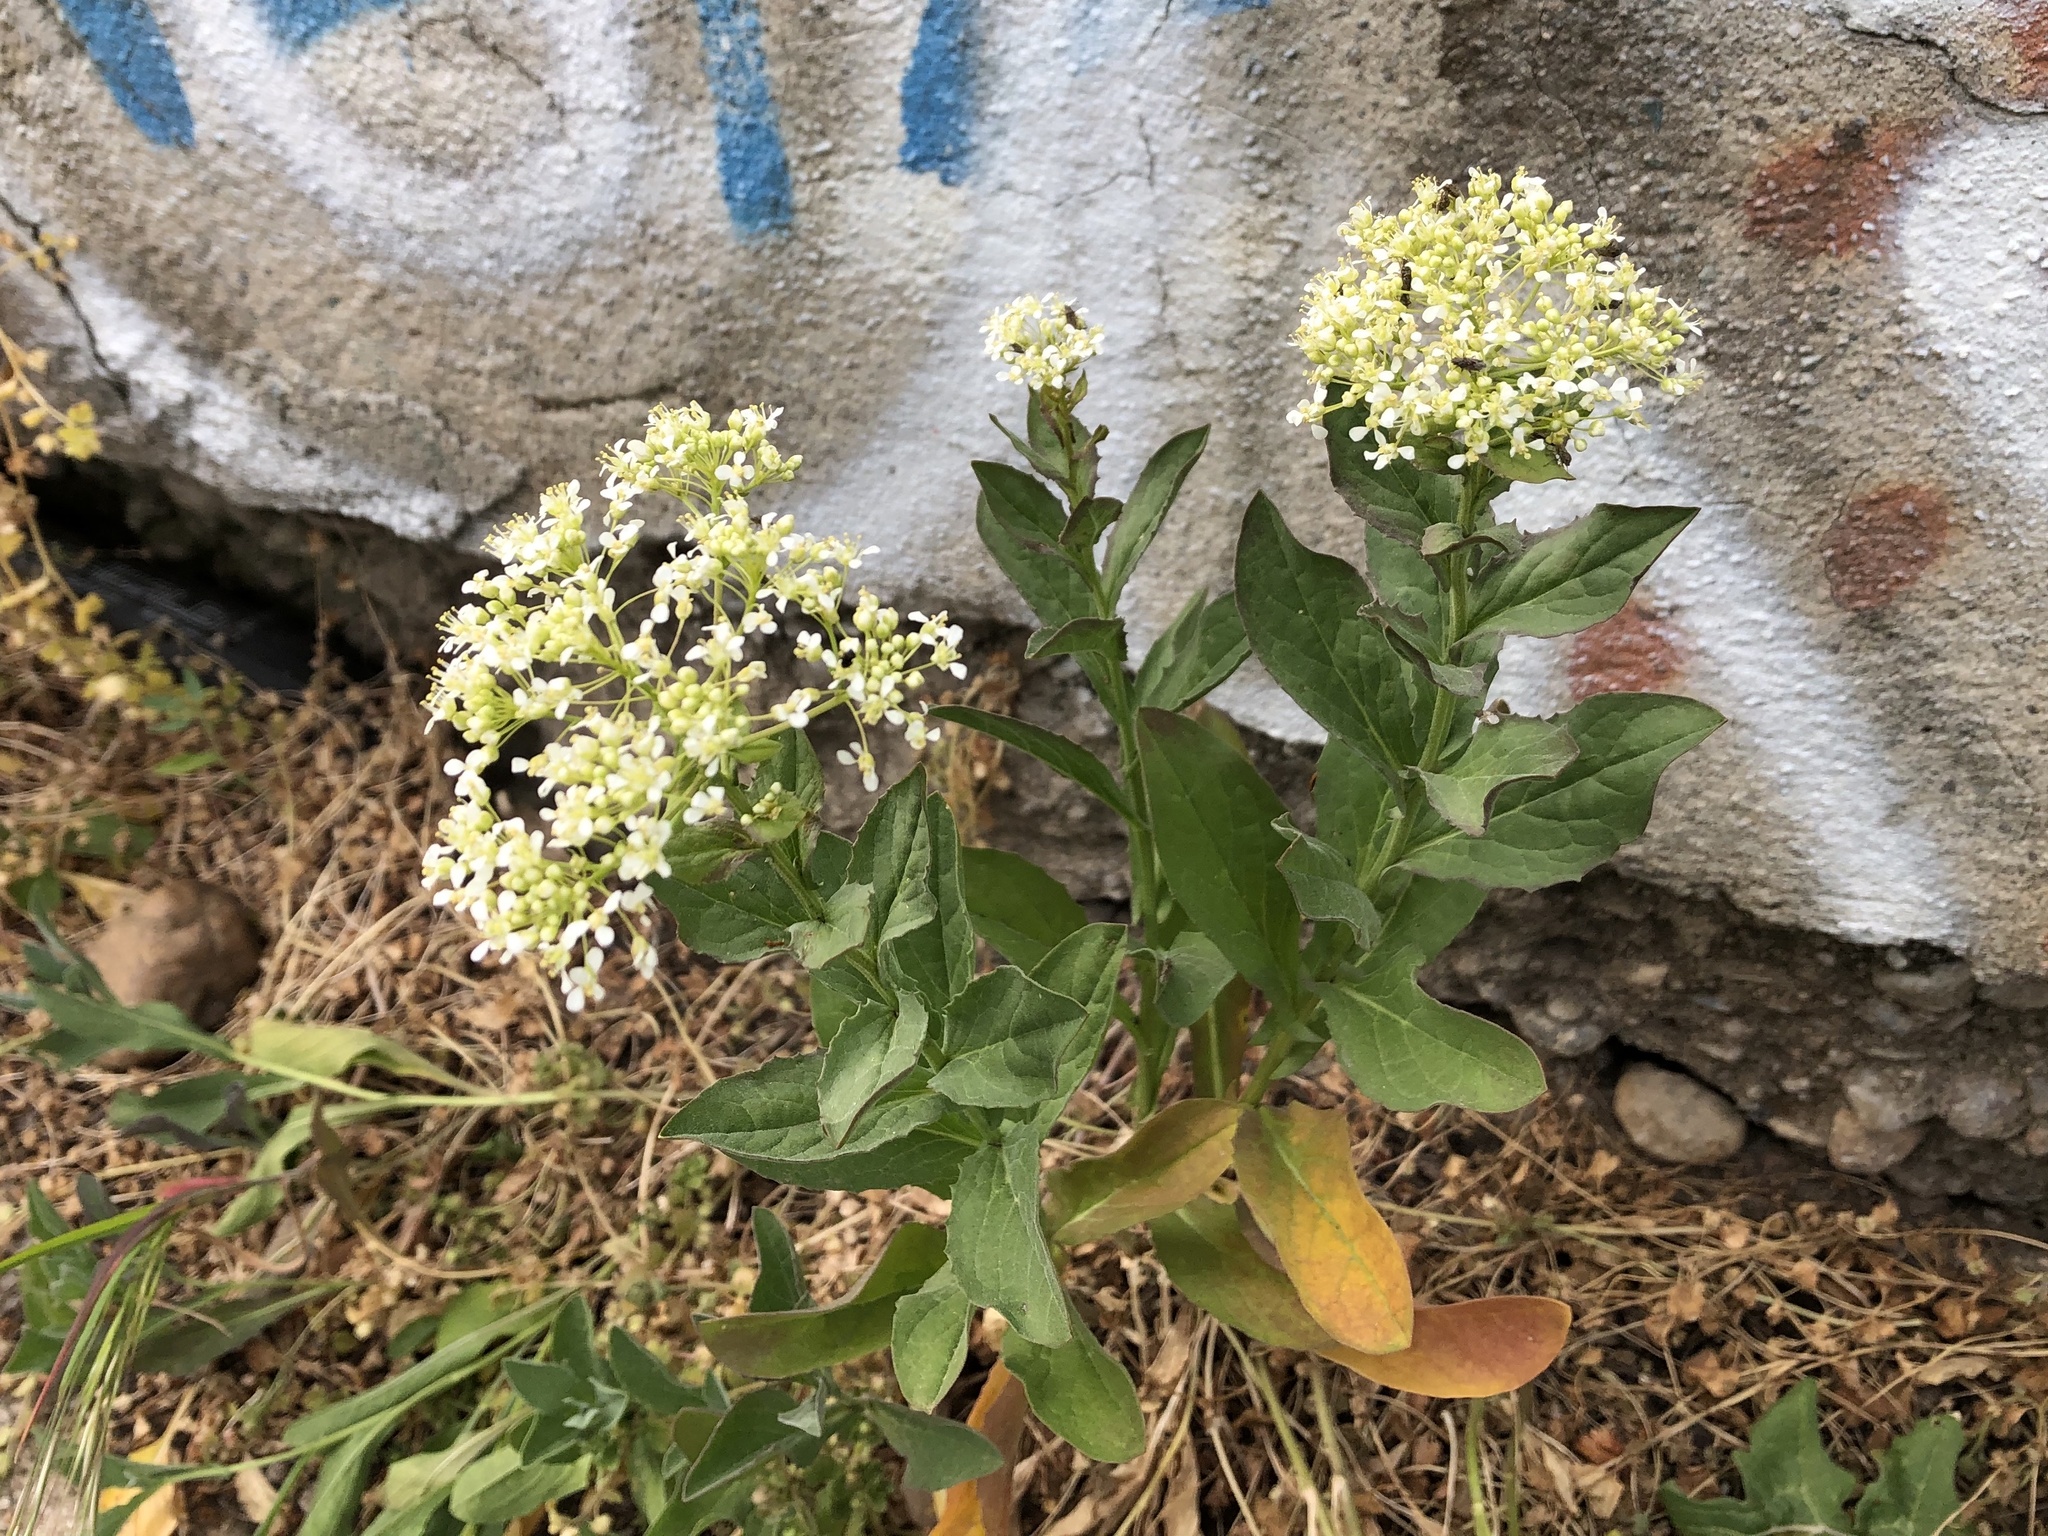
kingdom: Plantae
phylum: Tracheophyta
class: Magnoliopsida
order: Brassicales
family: Brassicaceae
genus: Lepidium
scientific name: Lepidium draba
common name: Hoary cress
